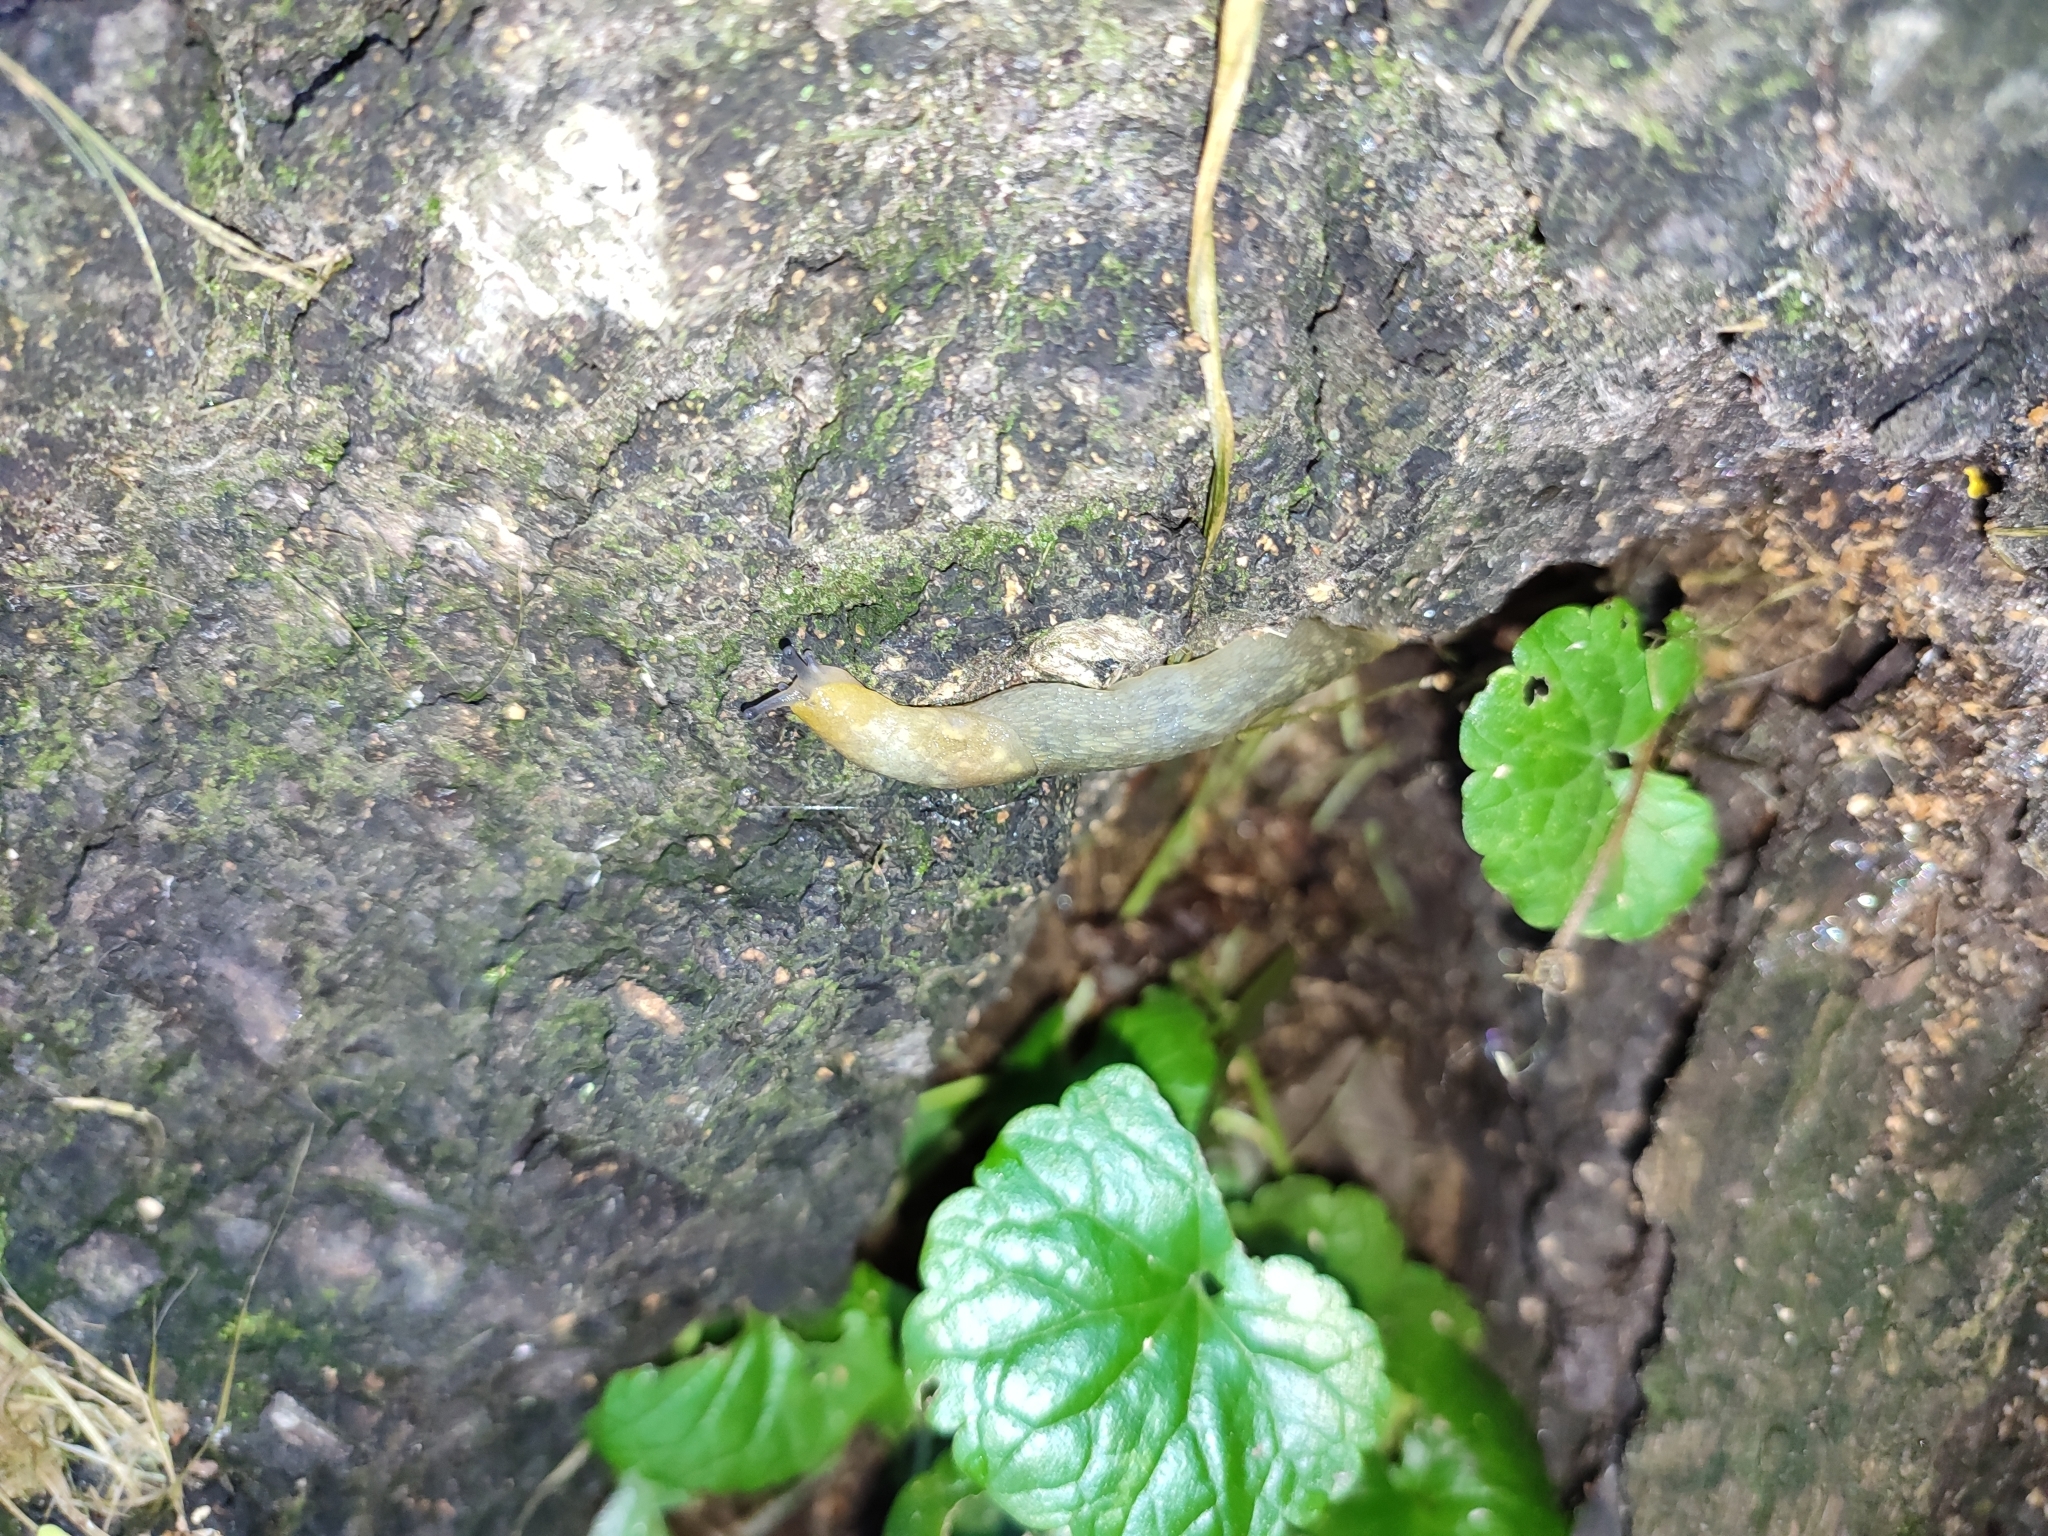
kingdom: Animalia
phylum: Mollusca
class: Gastropoda
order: Stylommatophora
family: Limacidae
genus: Limacus
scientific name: Limacus flavus
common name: Yellow gardenslug
